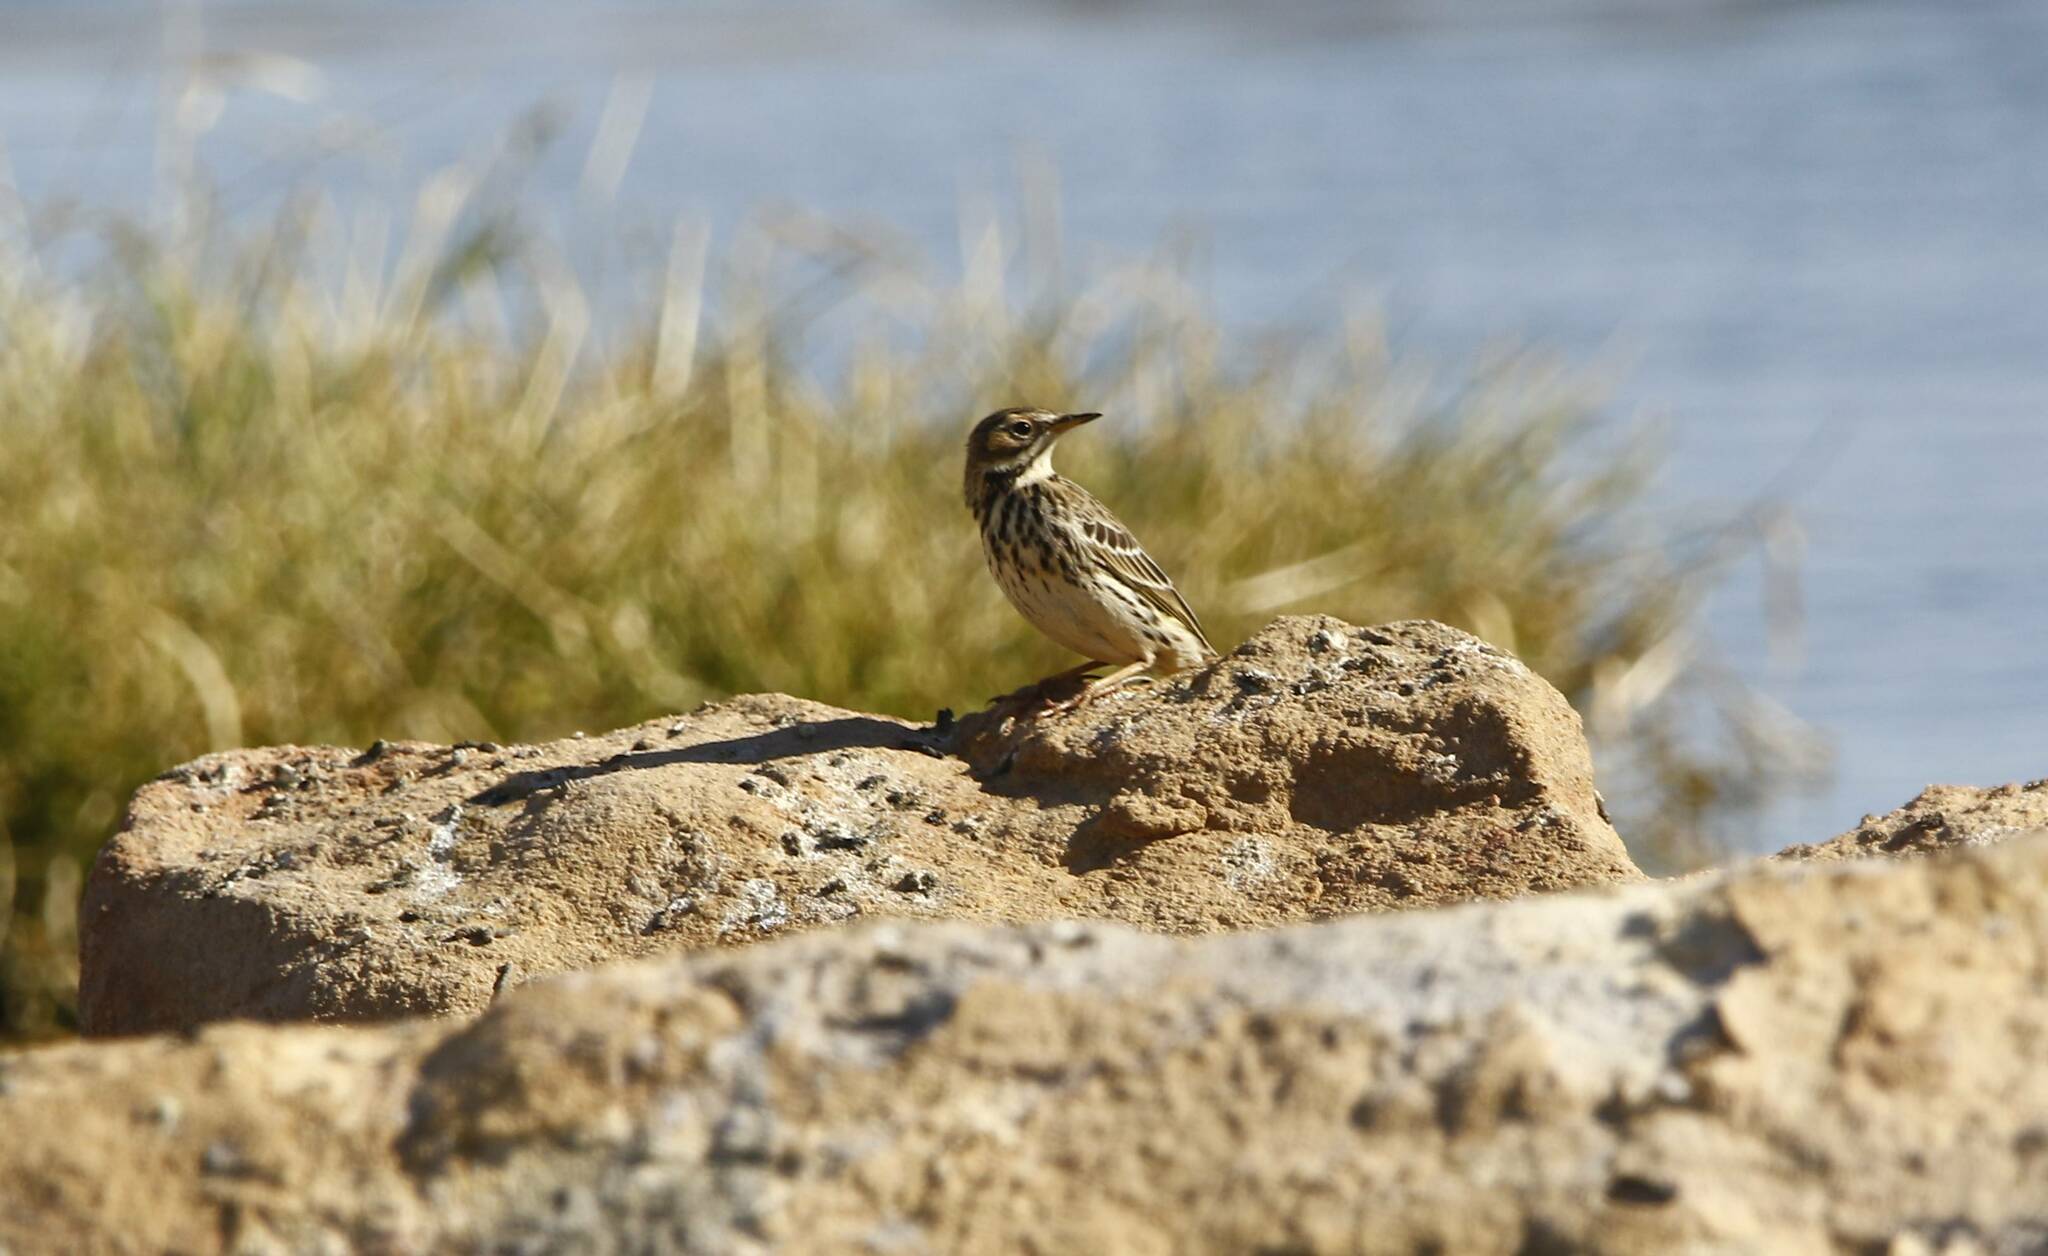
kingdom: Animalia
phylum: Chordata
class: Aves
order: Passeriformes
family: Motacillidae
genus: Anthus
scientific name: Anthus cervinus
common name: Red-throated pipit
